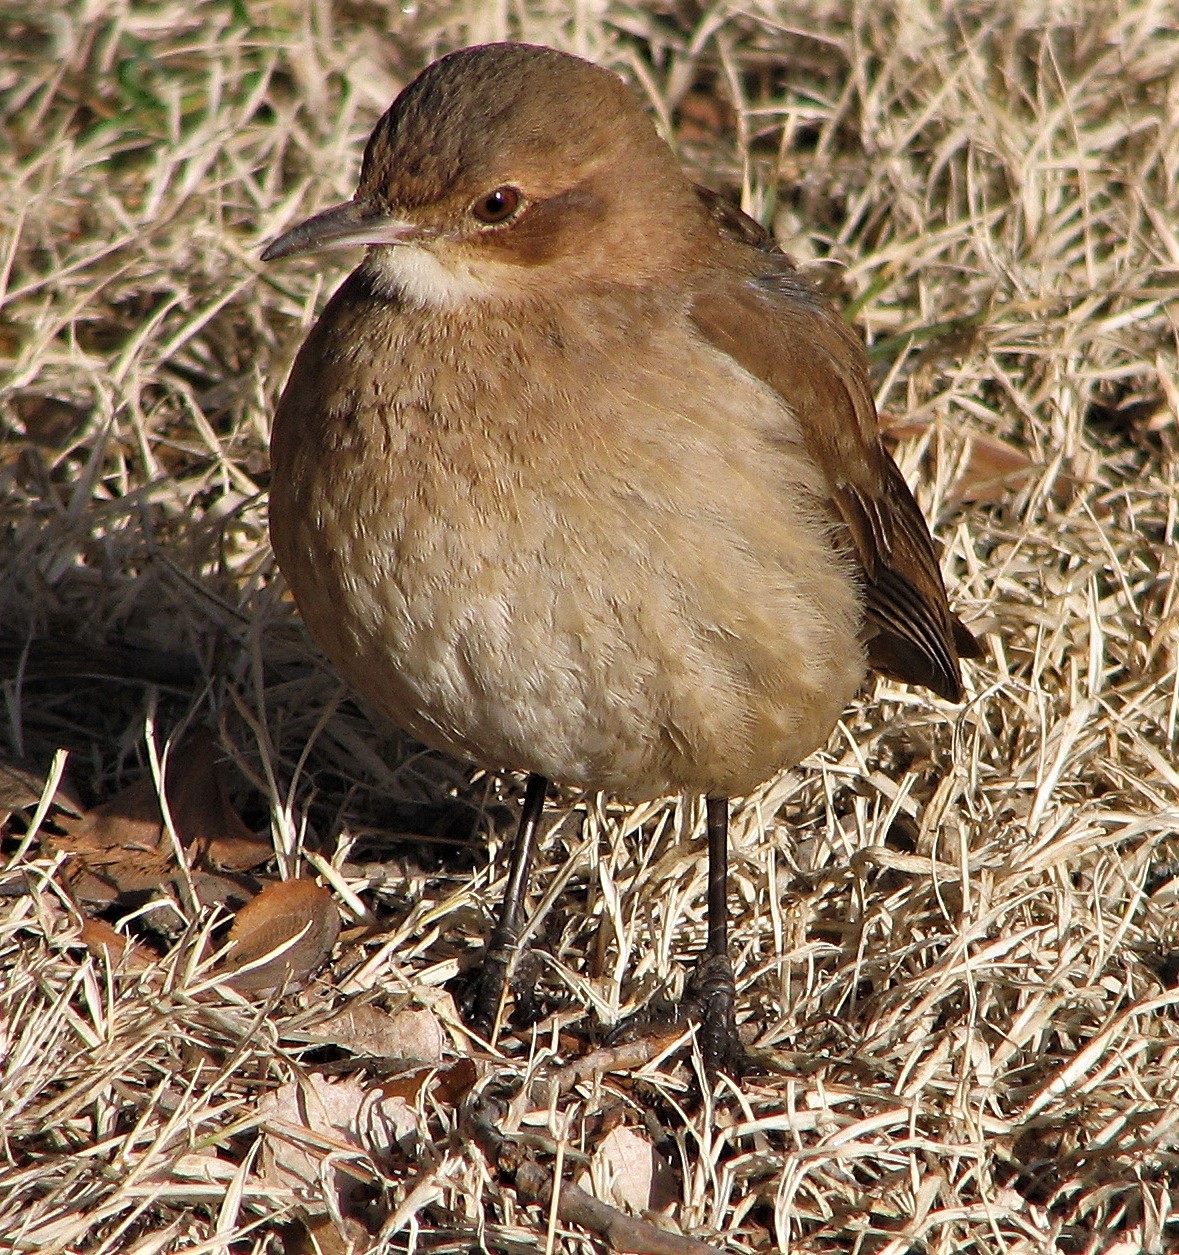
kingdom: Animalia
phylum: Chordata
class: Aves
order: Passeriformes
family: Furnariidae
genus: Furnarius
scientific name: Furnarius rufus
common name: Rufous hornero
